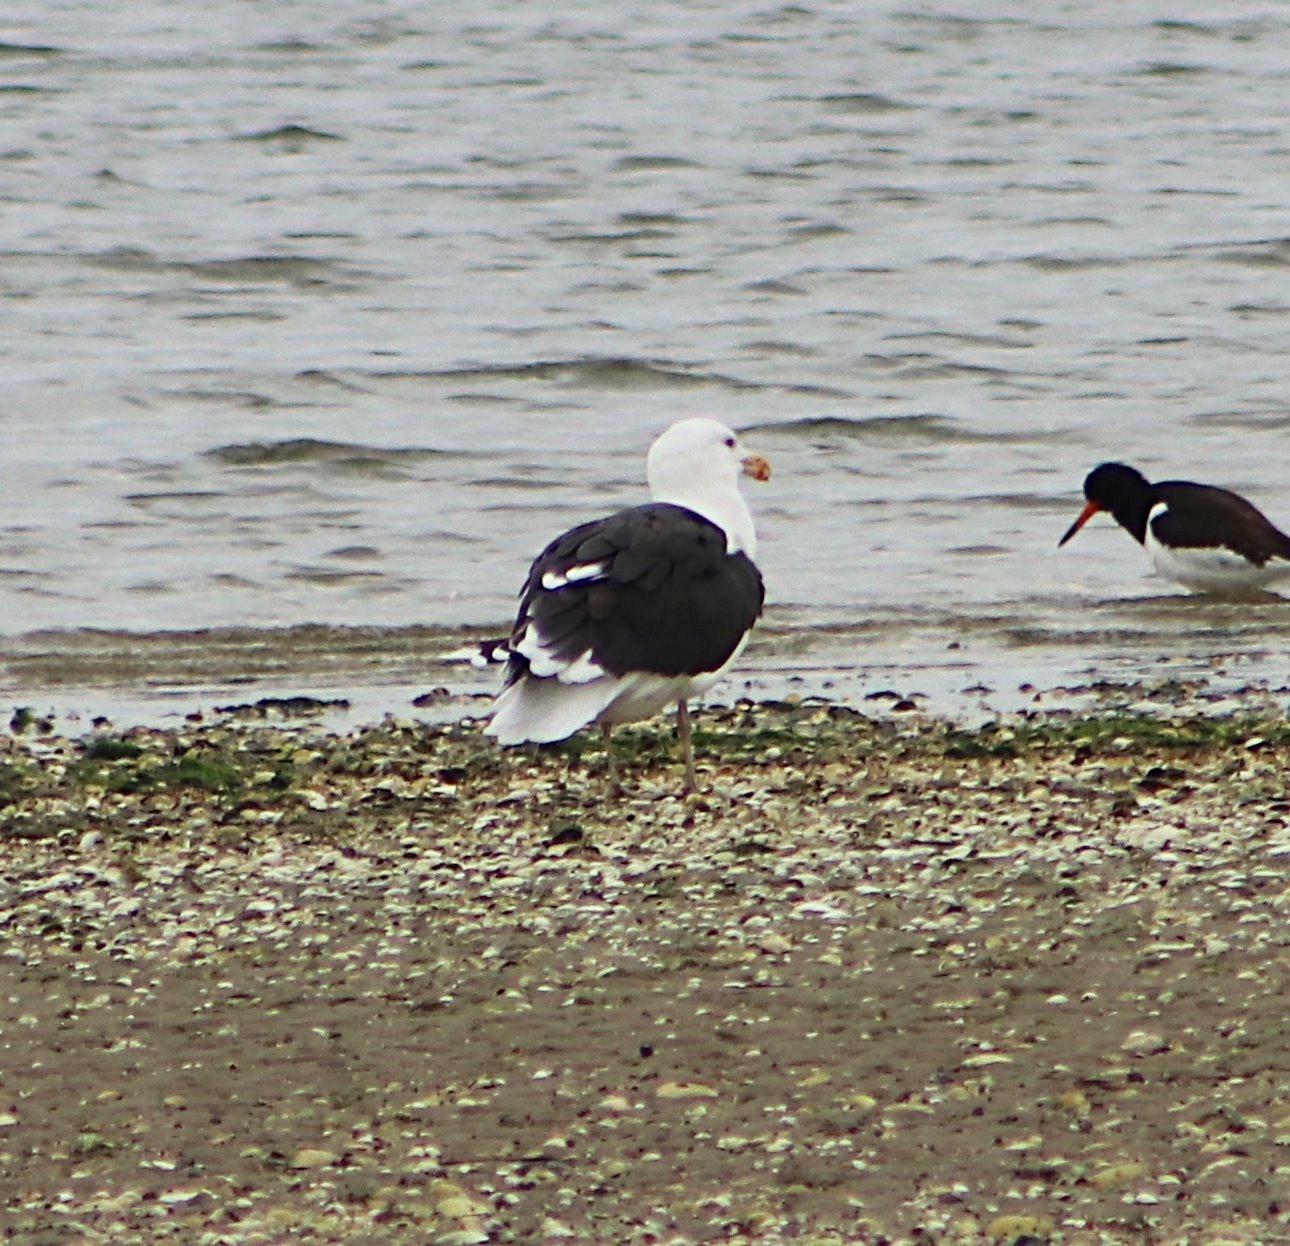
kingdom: Animalia
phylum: Chordata
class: Aves
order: Charadriiformes
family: Laridae
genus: Larus
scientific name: Larus marinus
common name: Great black-backed gull
